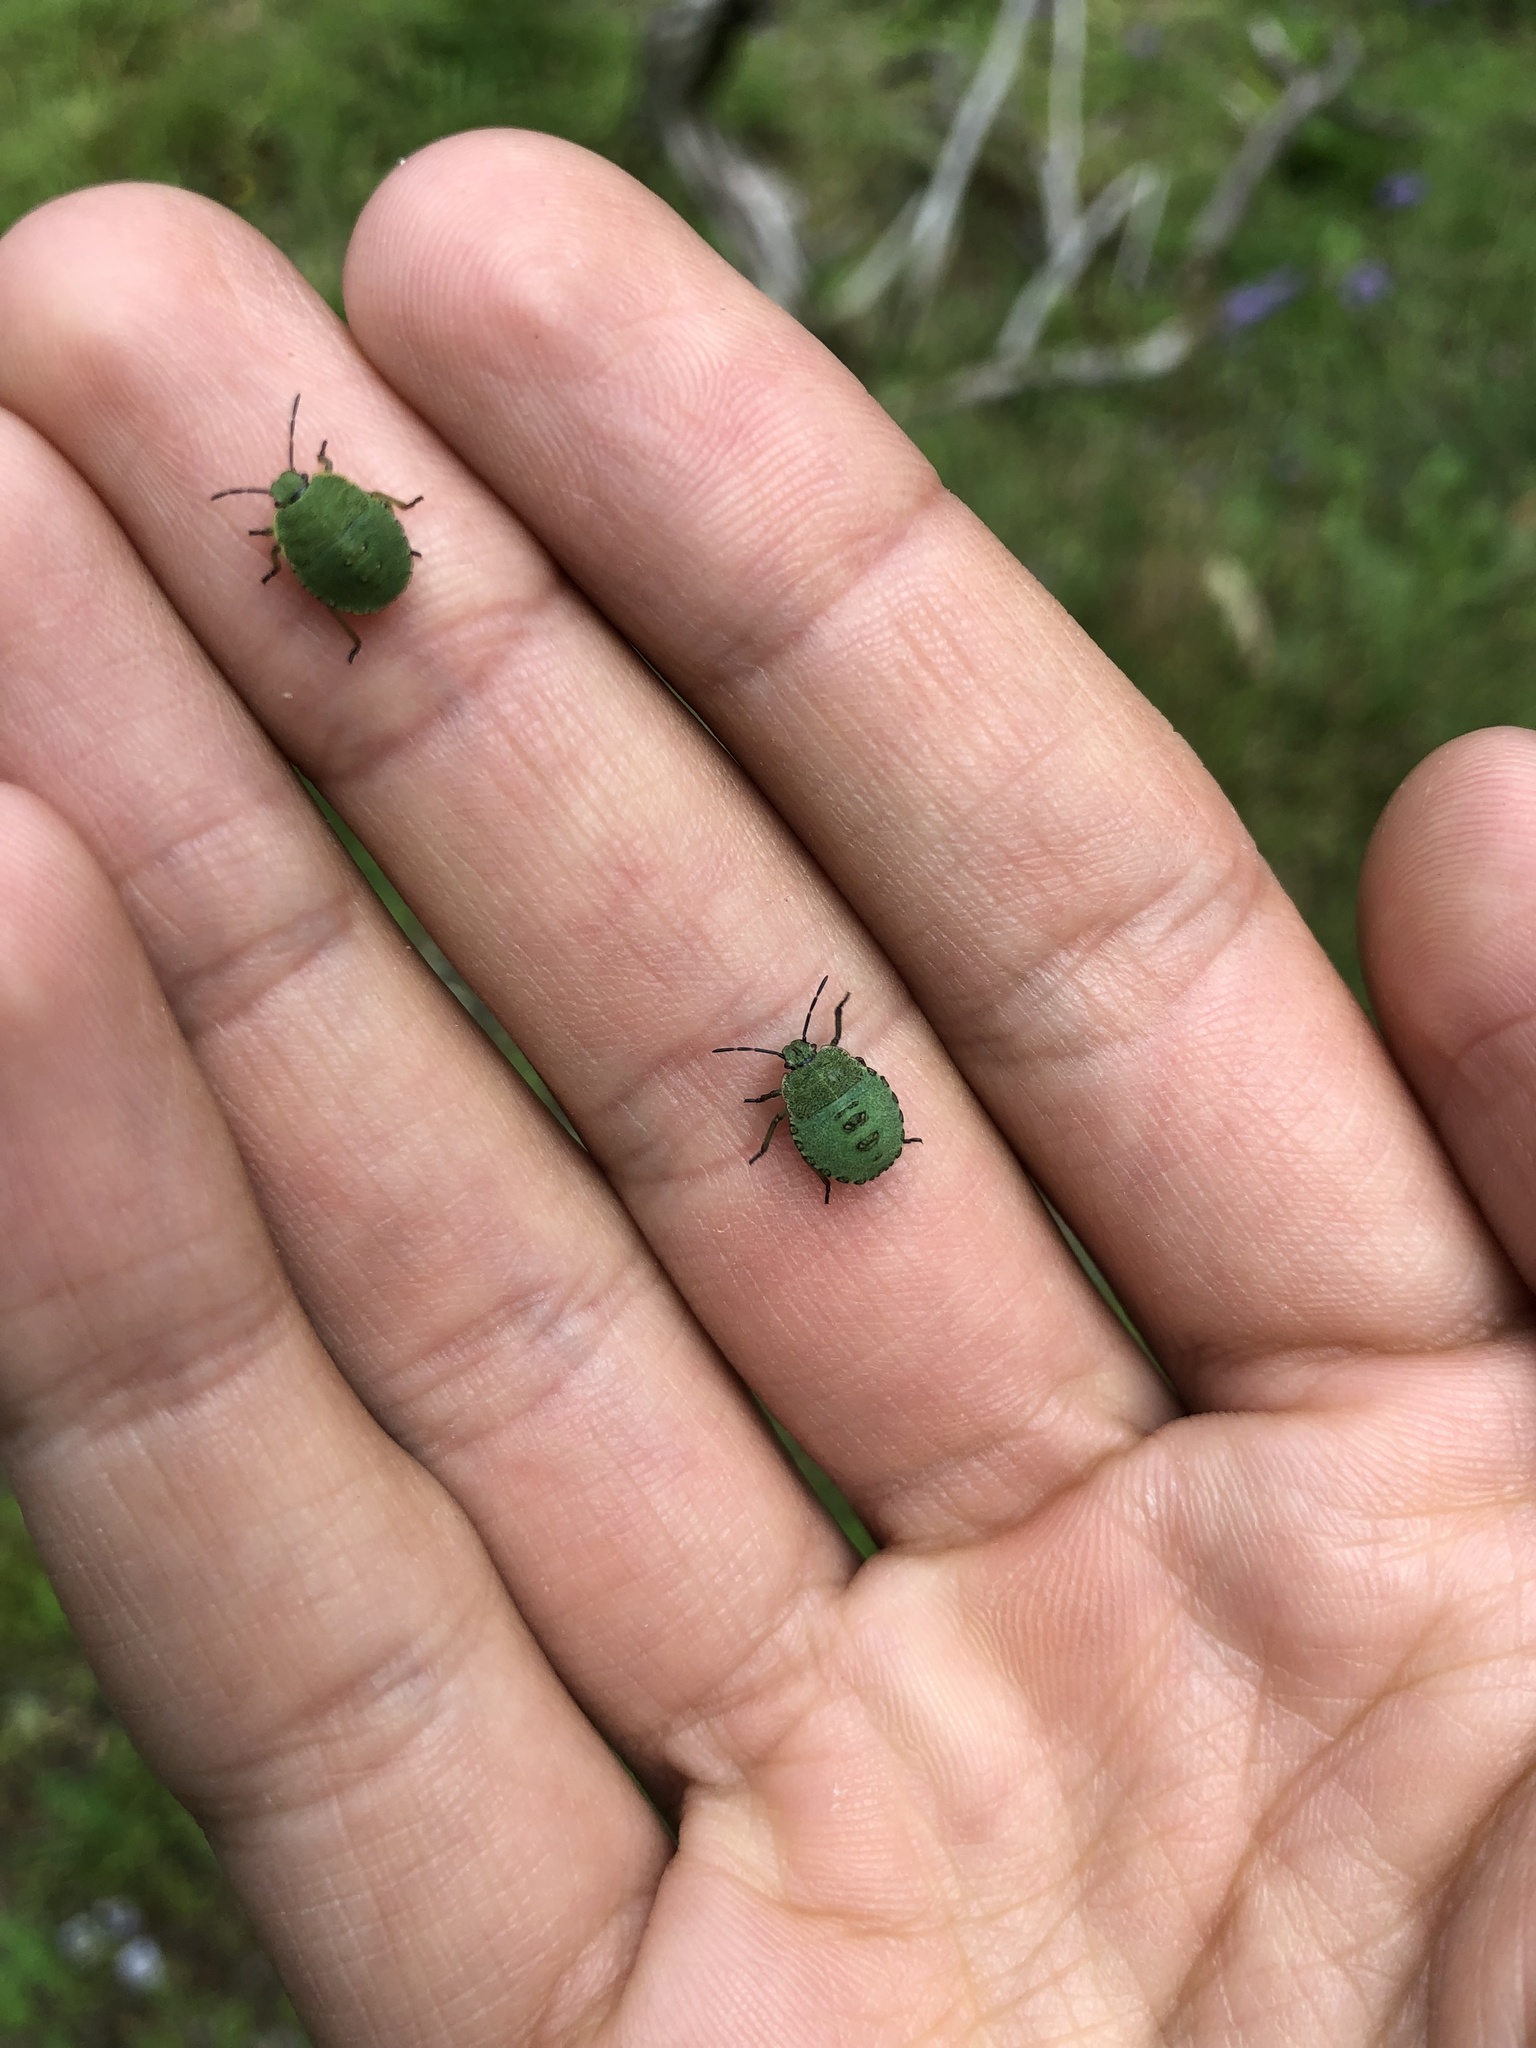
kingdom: Animalia
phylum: Arthropoda
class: Insecta
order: Hemiptera
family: Pentatomidae
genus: Palomena
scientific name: Palomena prasina
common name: Green shieldbug
